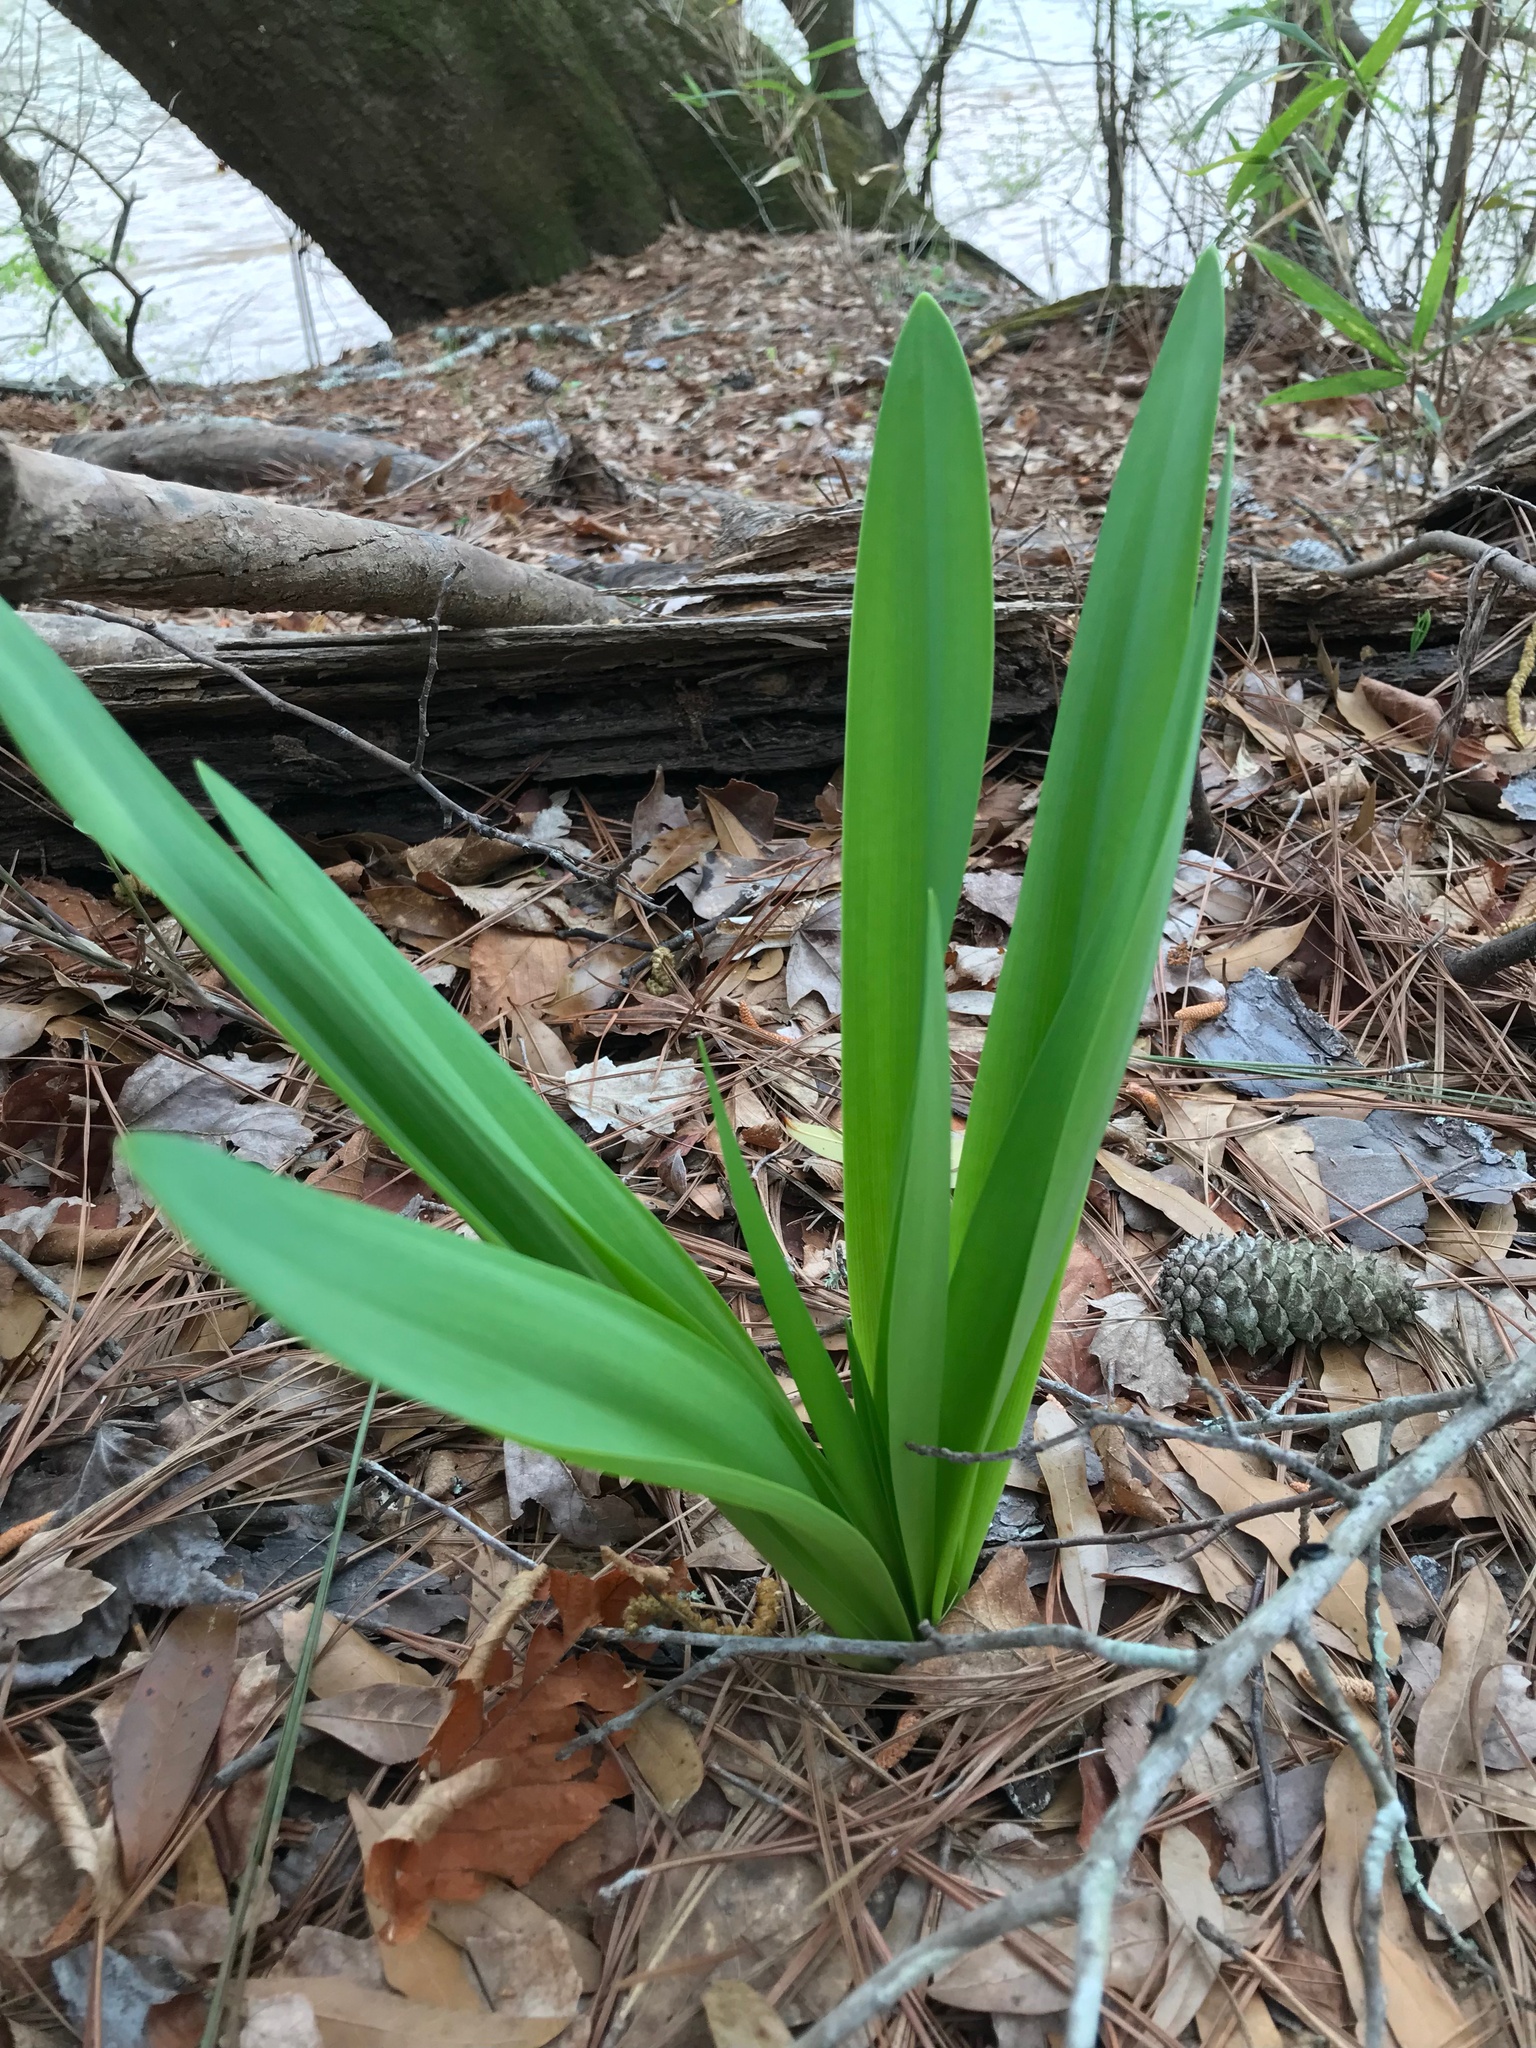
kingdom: Plantae
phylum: Tracheophyta
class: Liliopsida
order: Asparagales
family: Amaryllidaceae
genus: Hymenocallis
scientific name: Hymenocallis occidentalis
